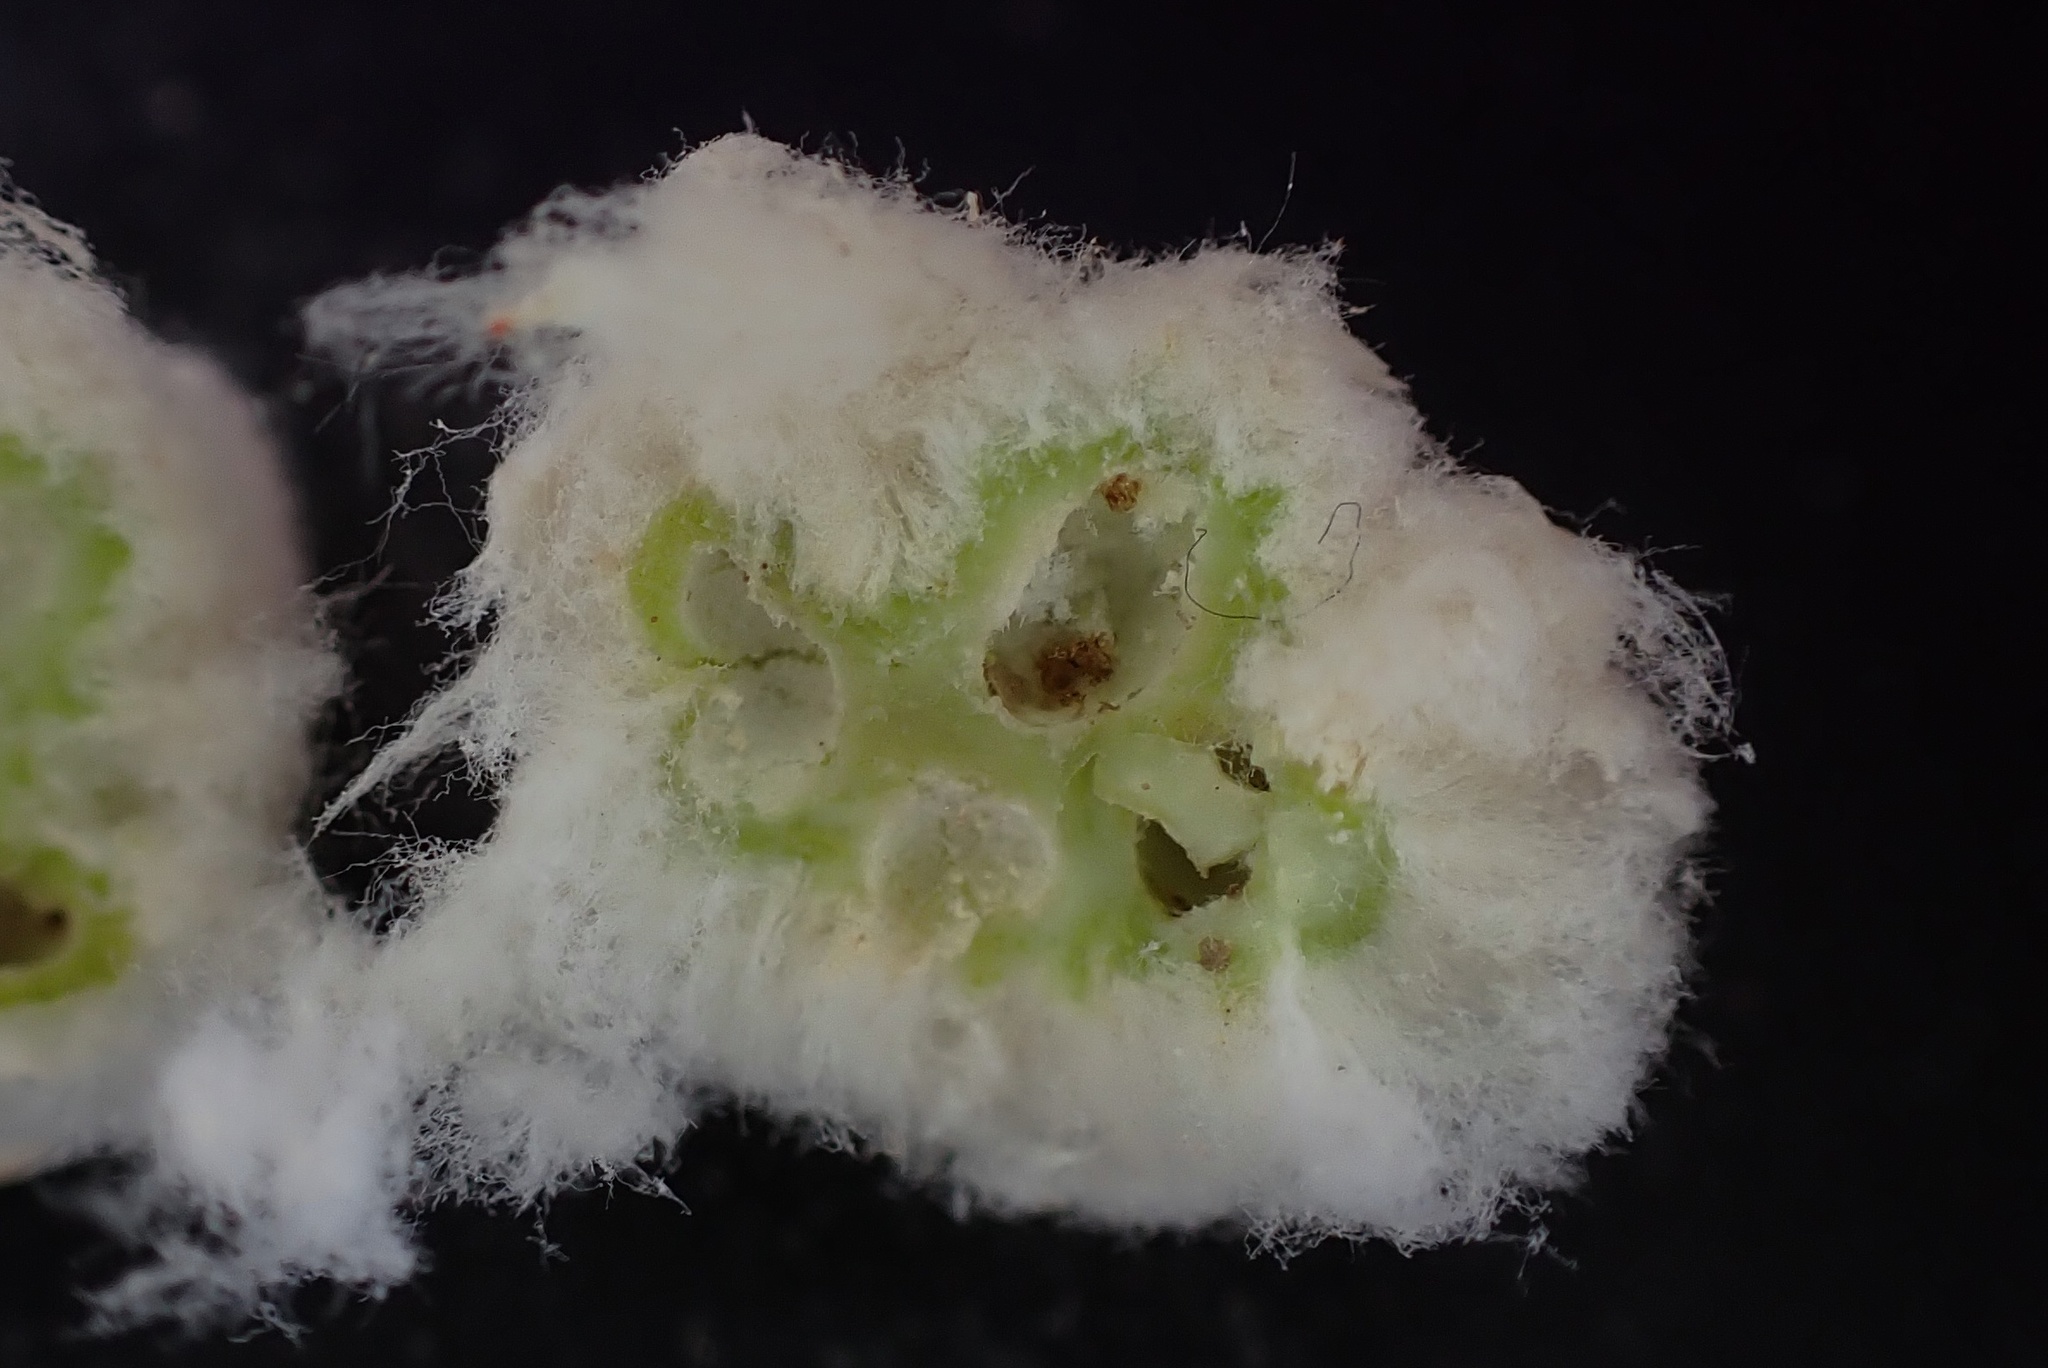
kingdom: Animalia
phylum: Arthropoda
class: Insecta
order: Diptera
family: Cecidomyiidae
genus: Asphondylia
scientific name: Asphondylia floccosa
